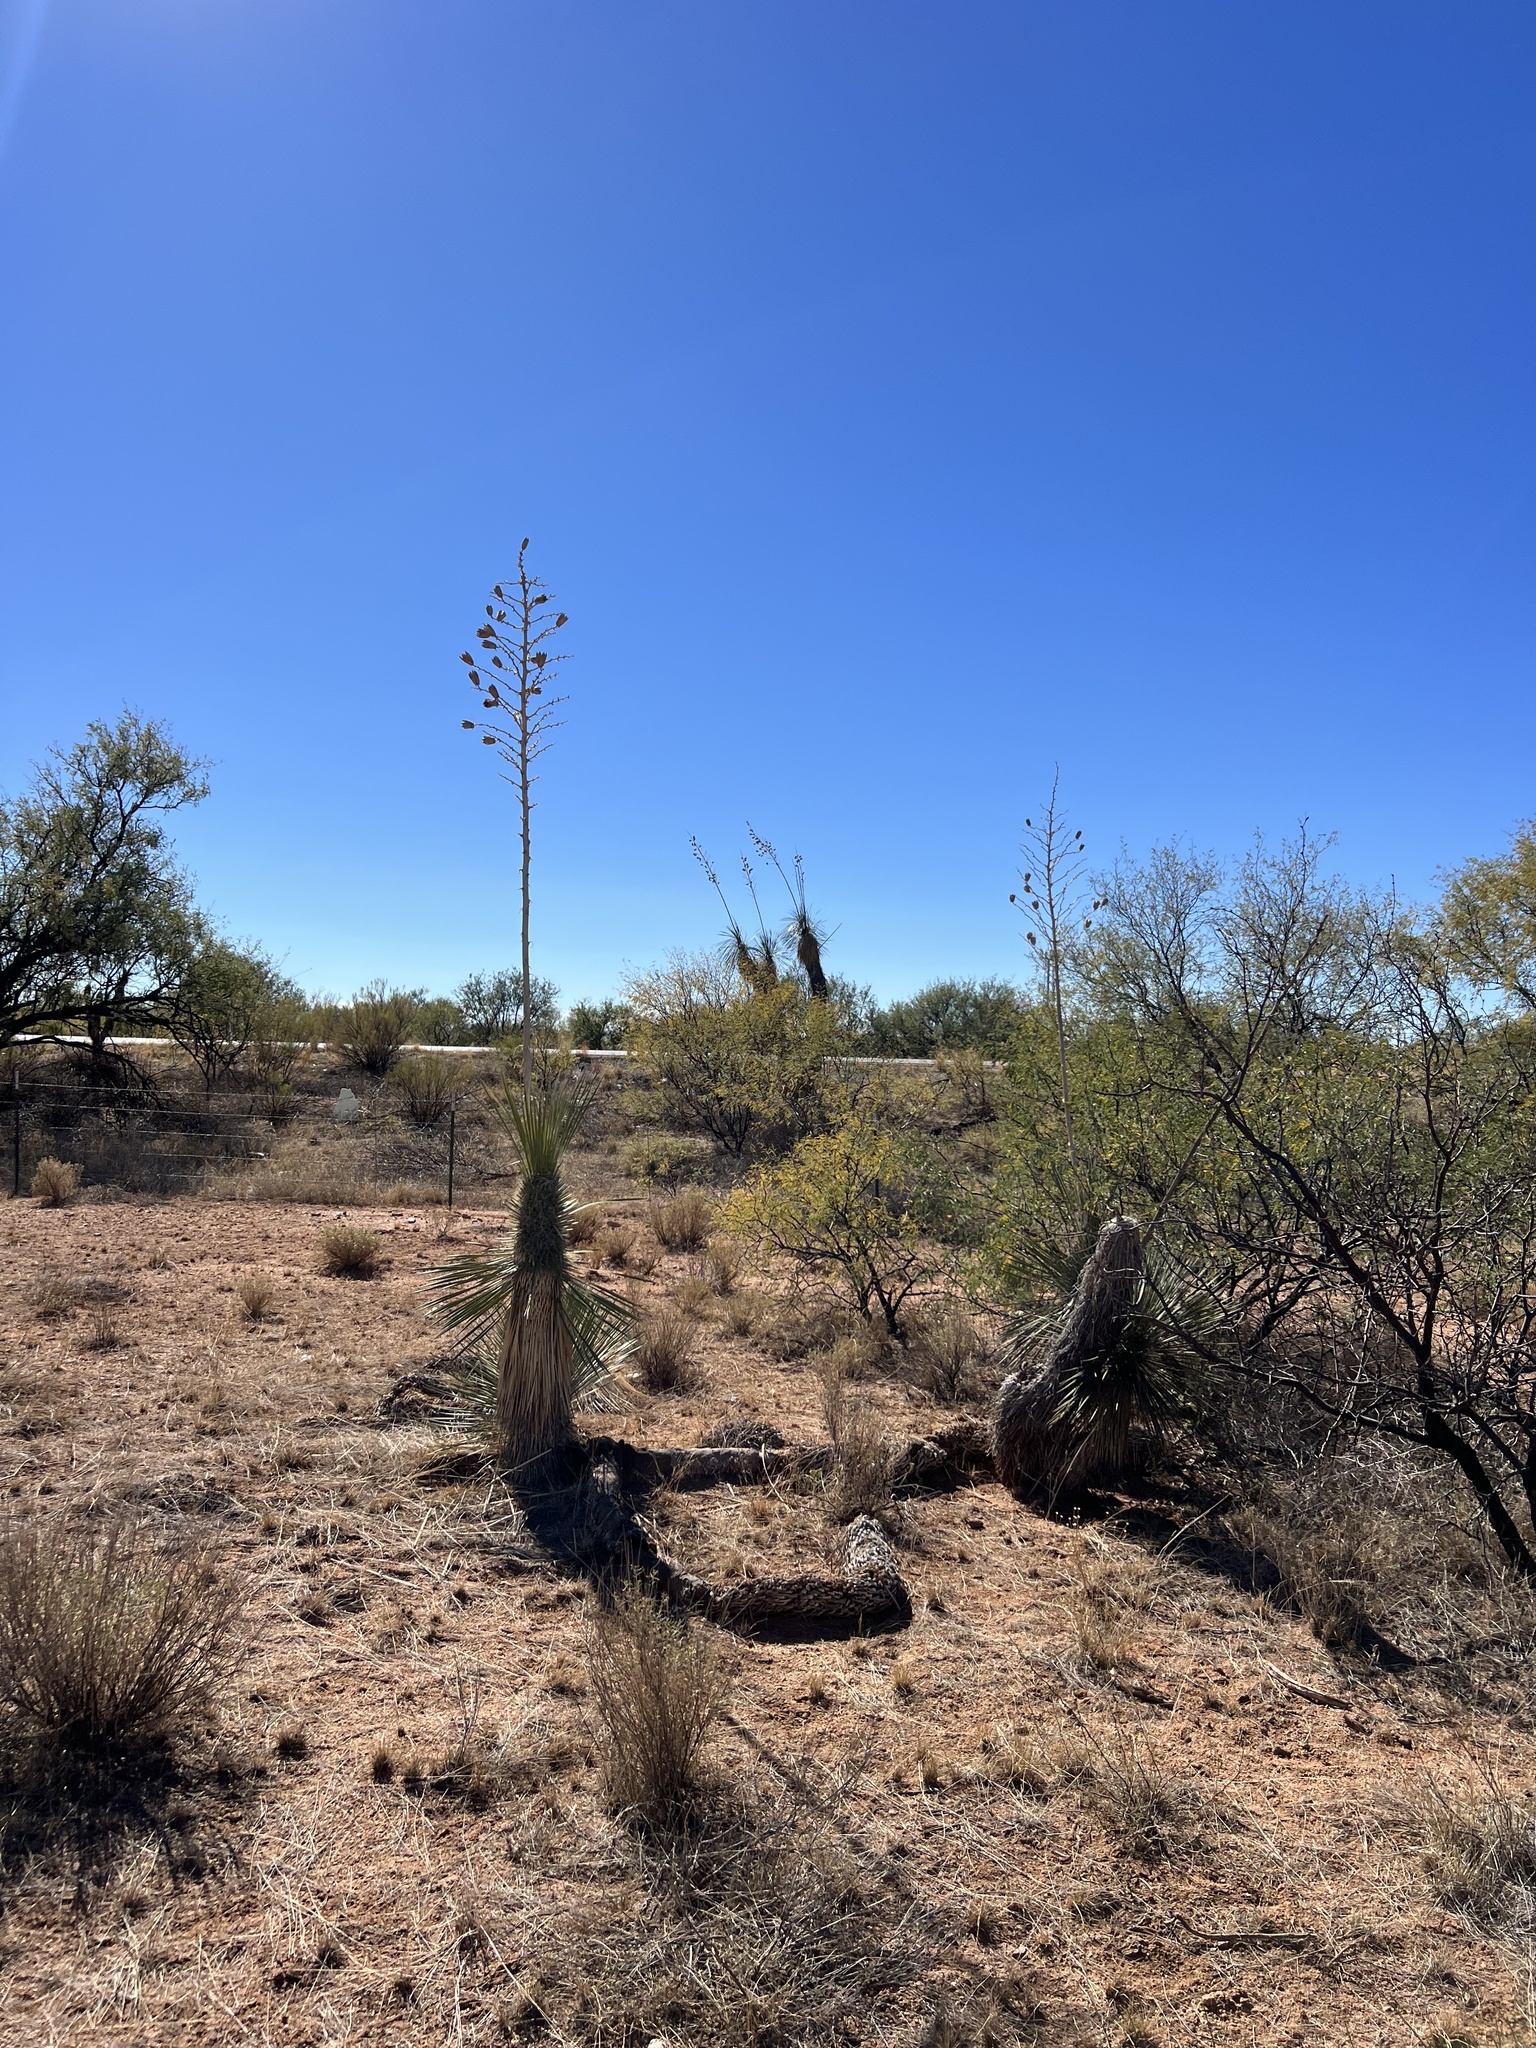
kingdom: Plantae
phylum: Tracheophyta
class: Liliopsida
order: Asparagales
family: Asparagaceae
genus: Yucca
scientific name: Yucca elata
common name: Palmella
